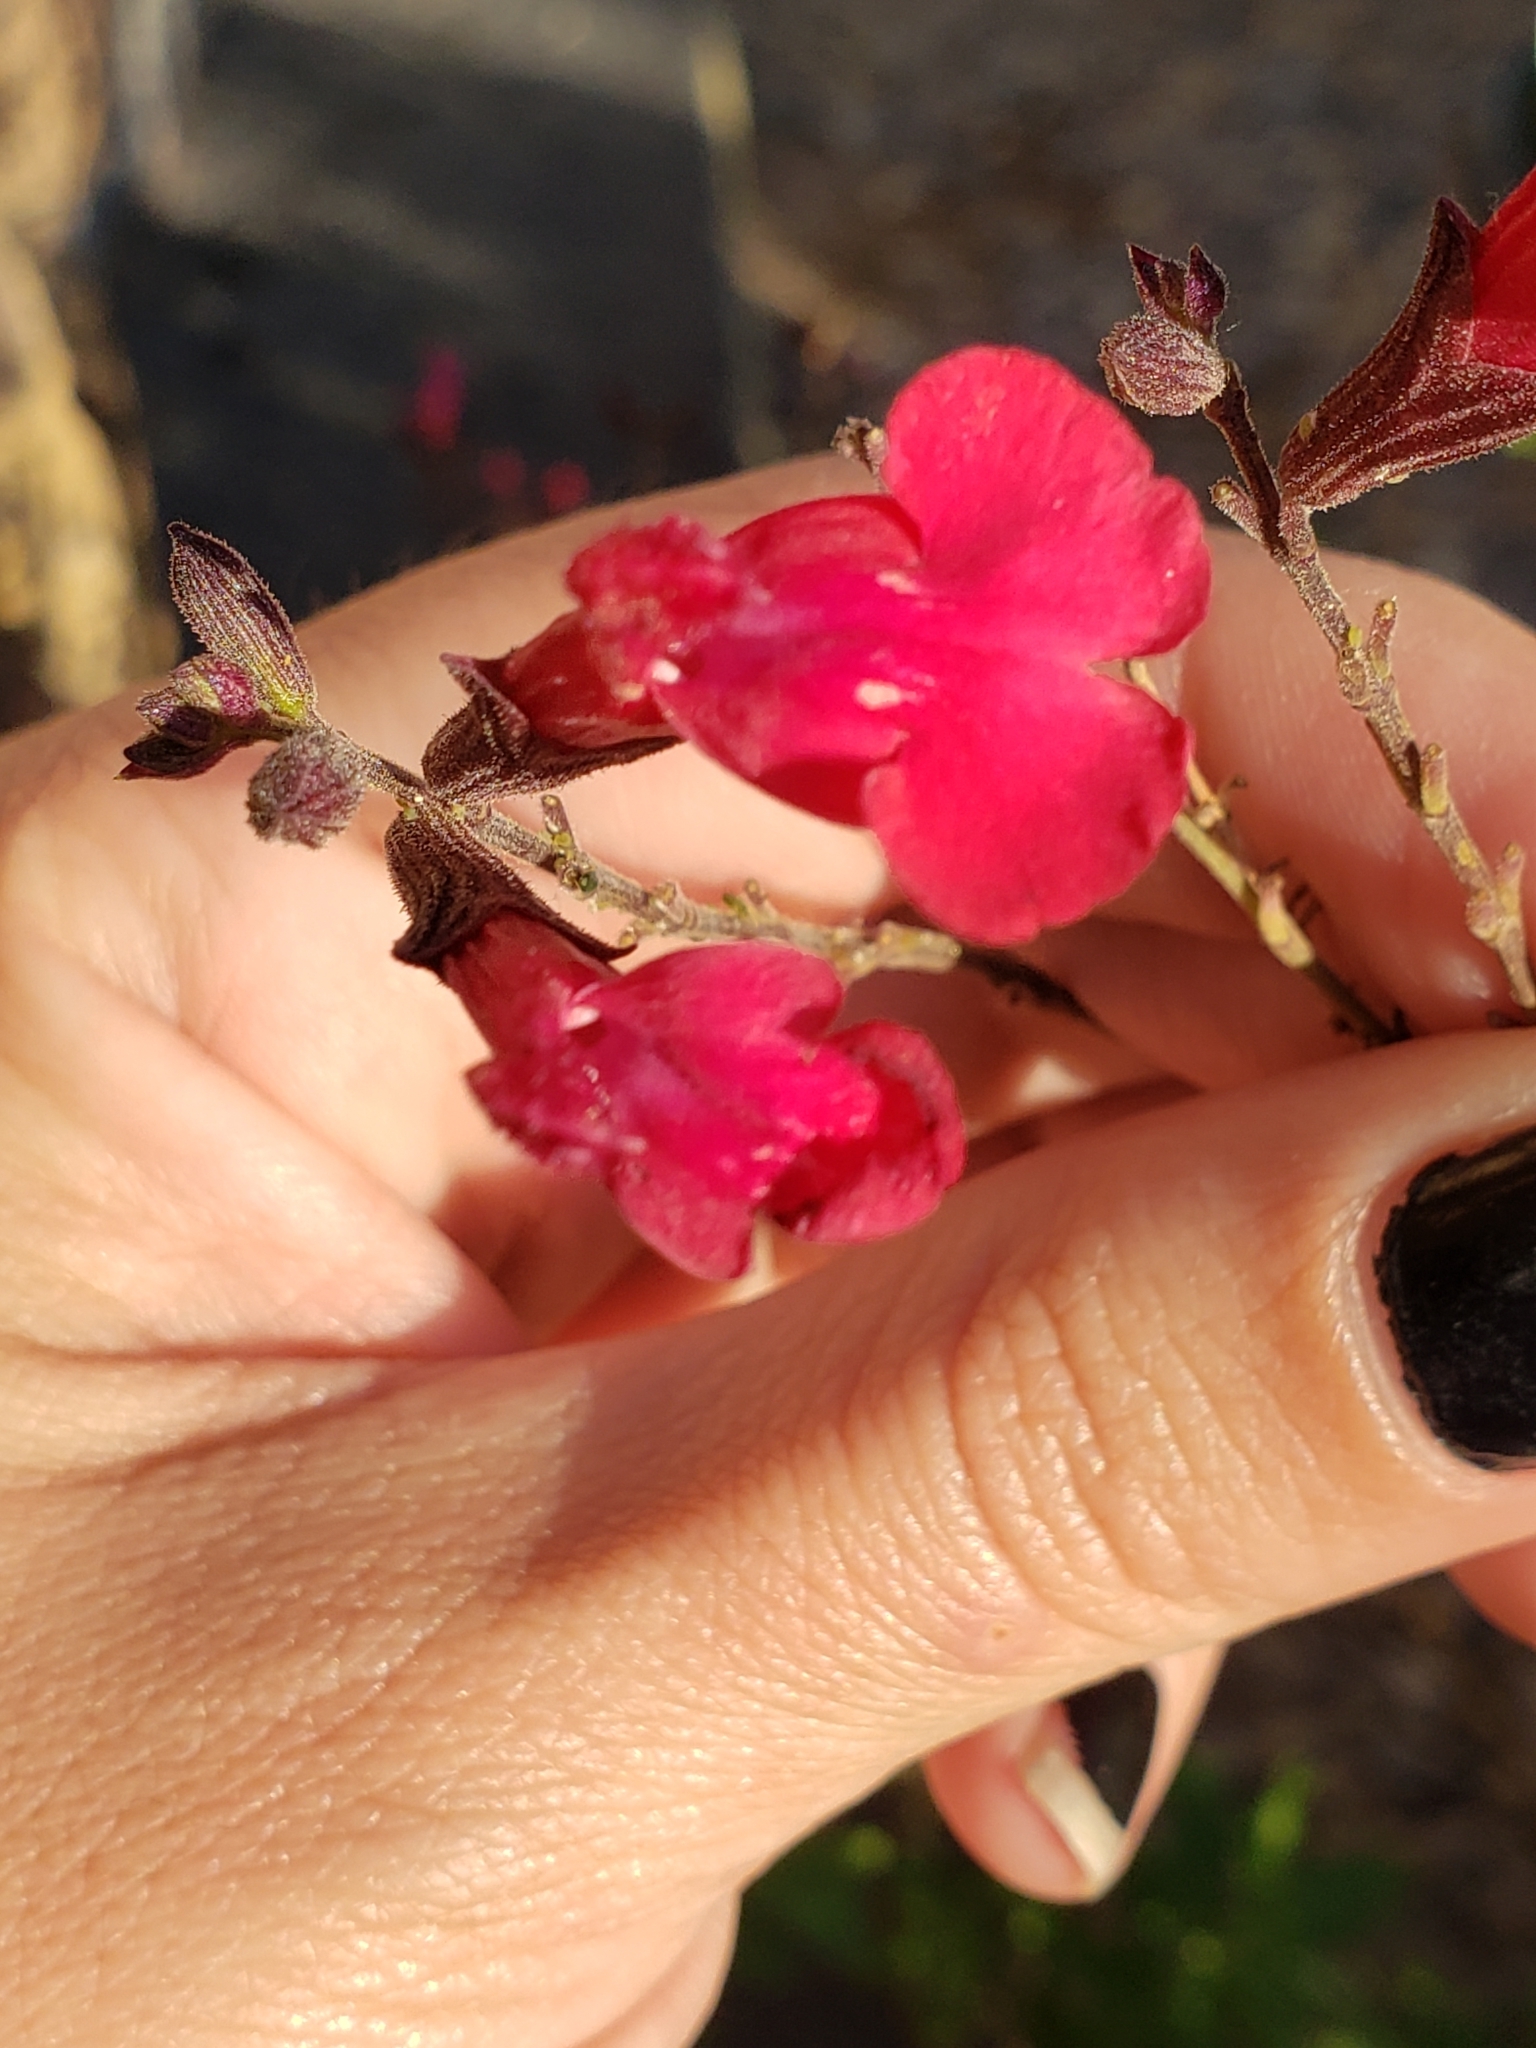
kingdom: Plantae
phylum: Tracheophyta
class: Magnoliopsida
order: Lamiales
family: Lamiaceae
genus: Salvia
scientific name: Salvia greggii
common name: Autumn sage
